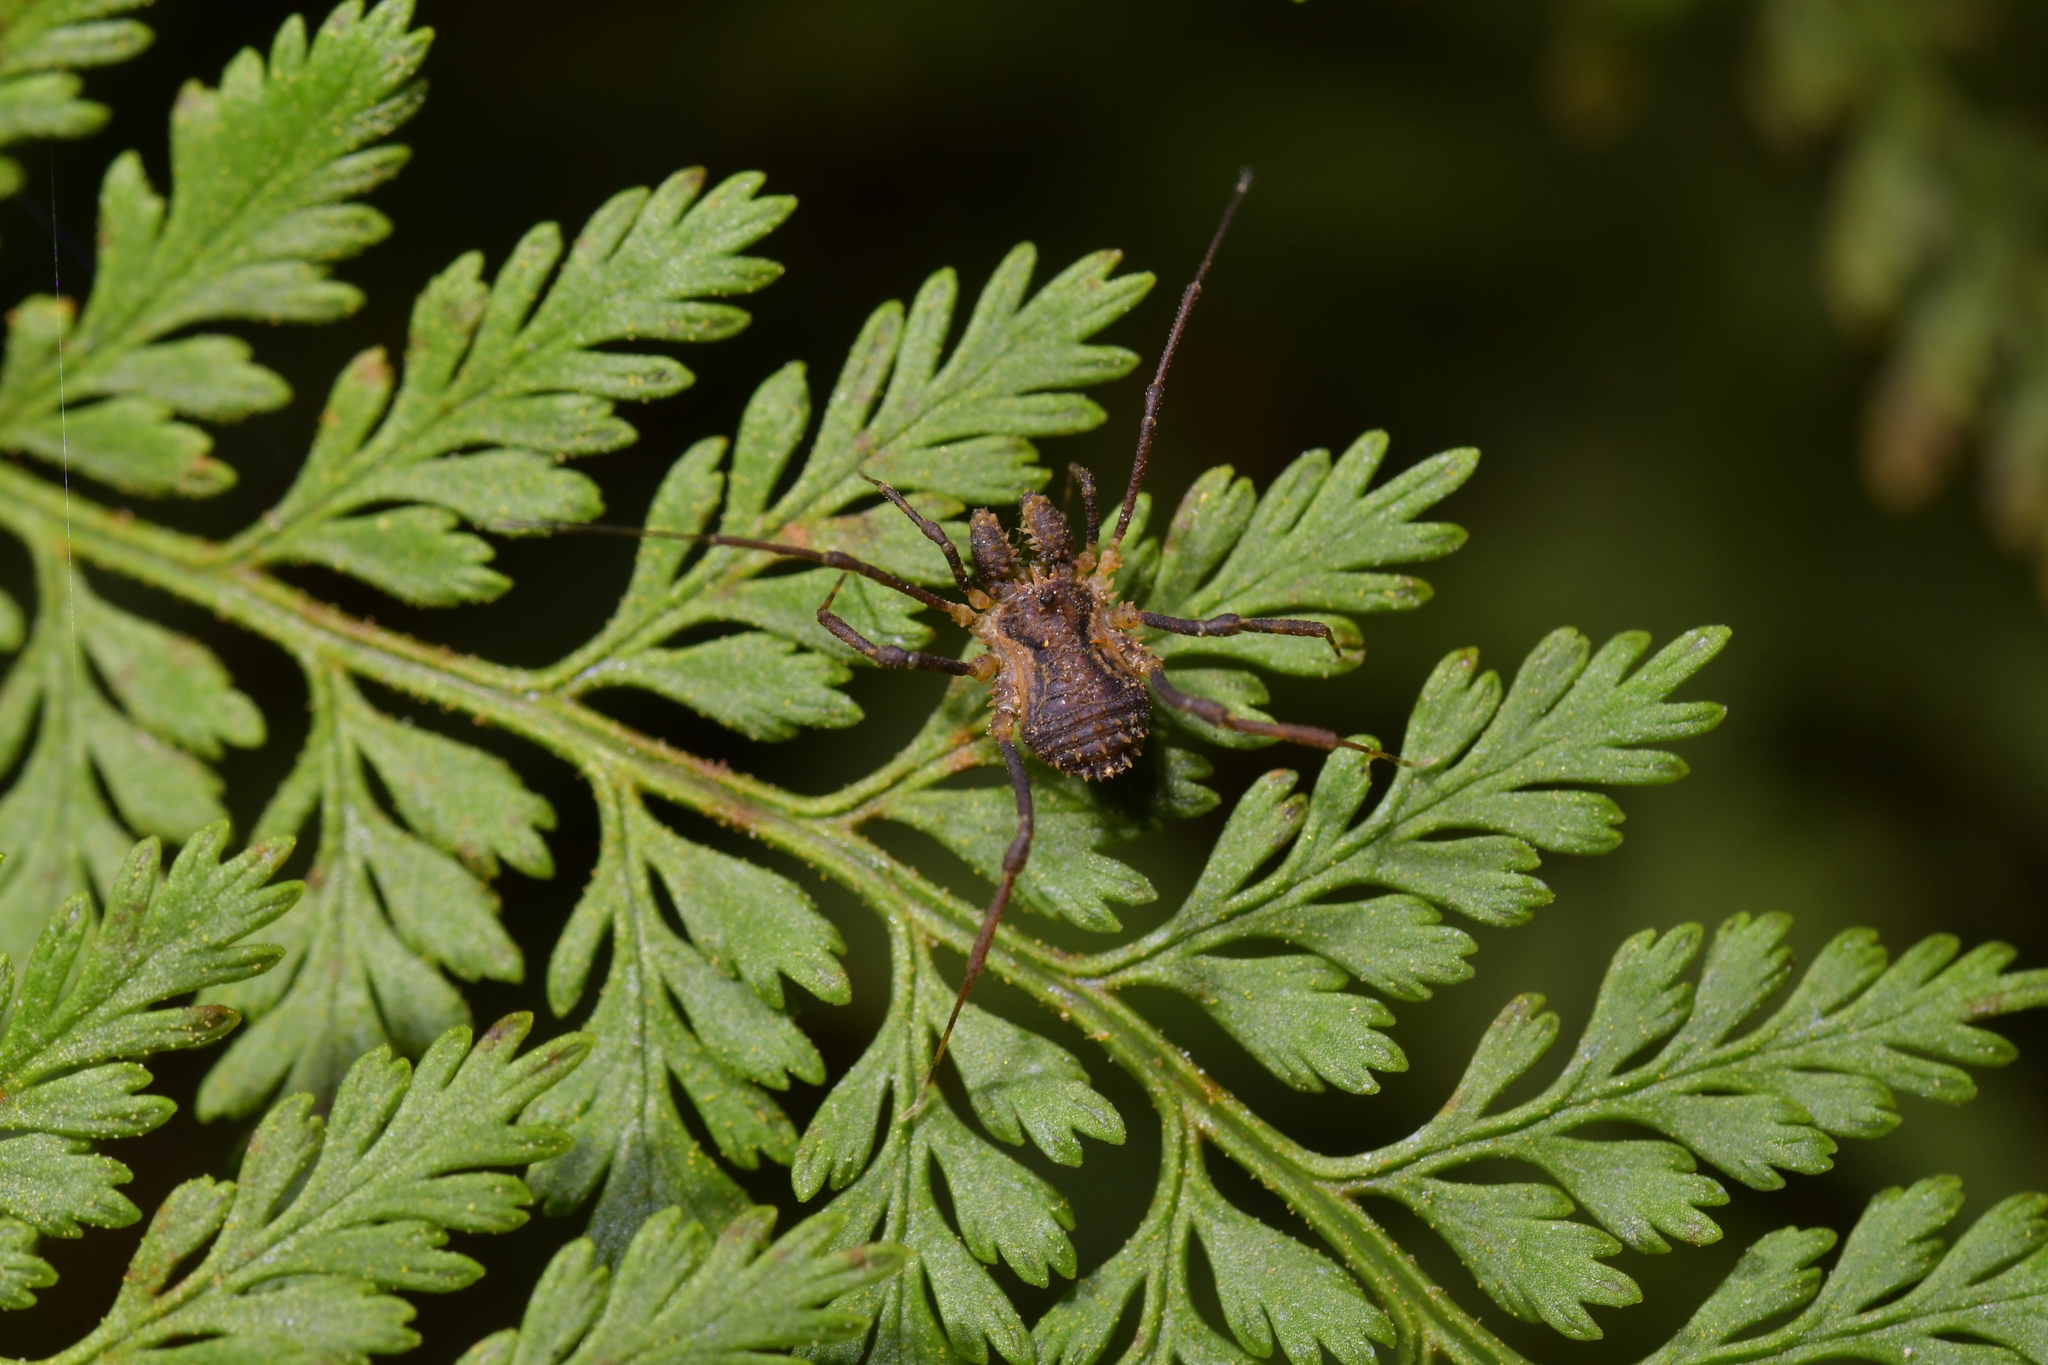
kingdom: Animalia
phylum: Arthropoda
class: Arachnida
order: Opiliones
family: Triaenonychidae
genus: Algidia
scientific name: Algidia chiltoni
